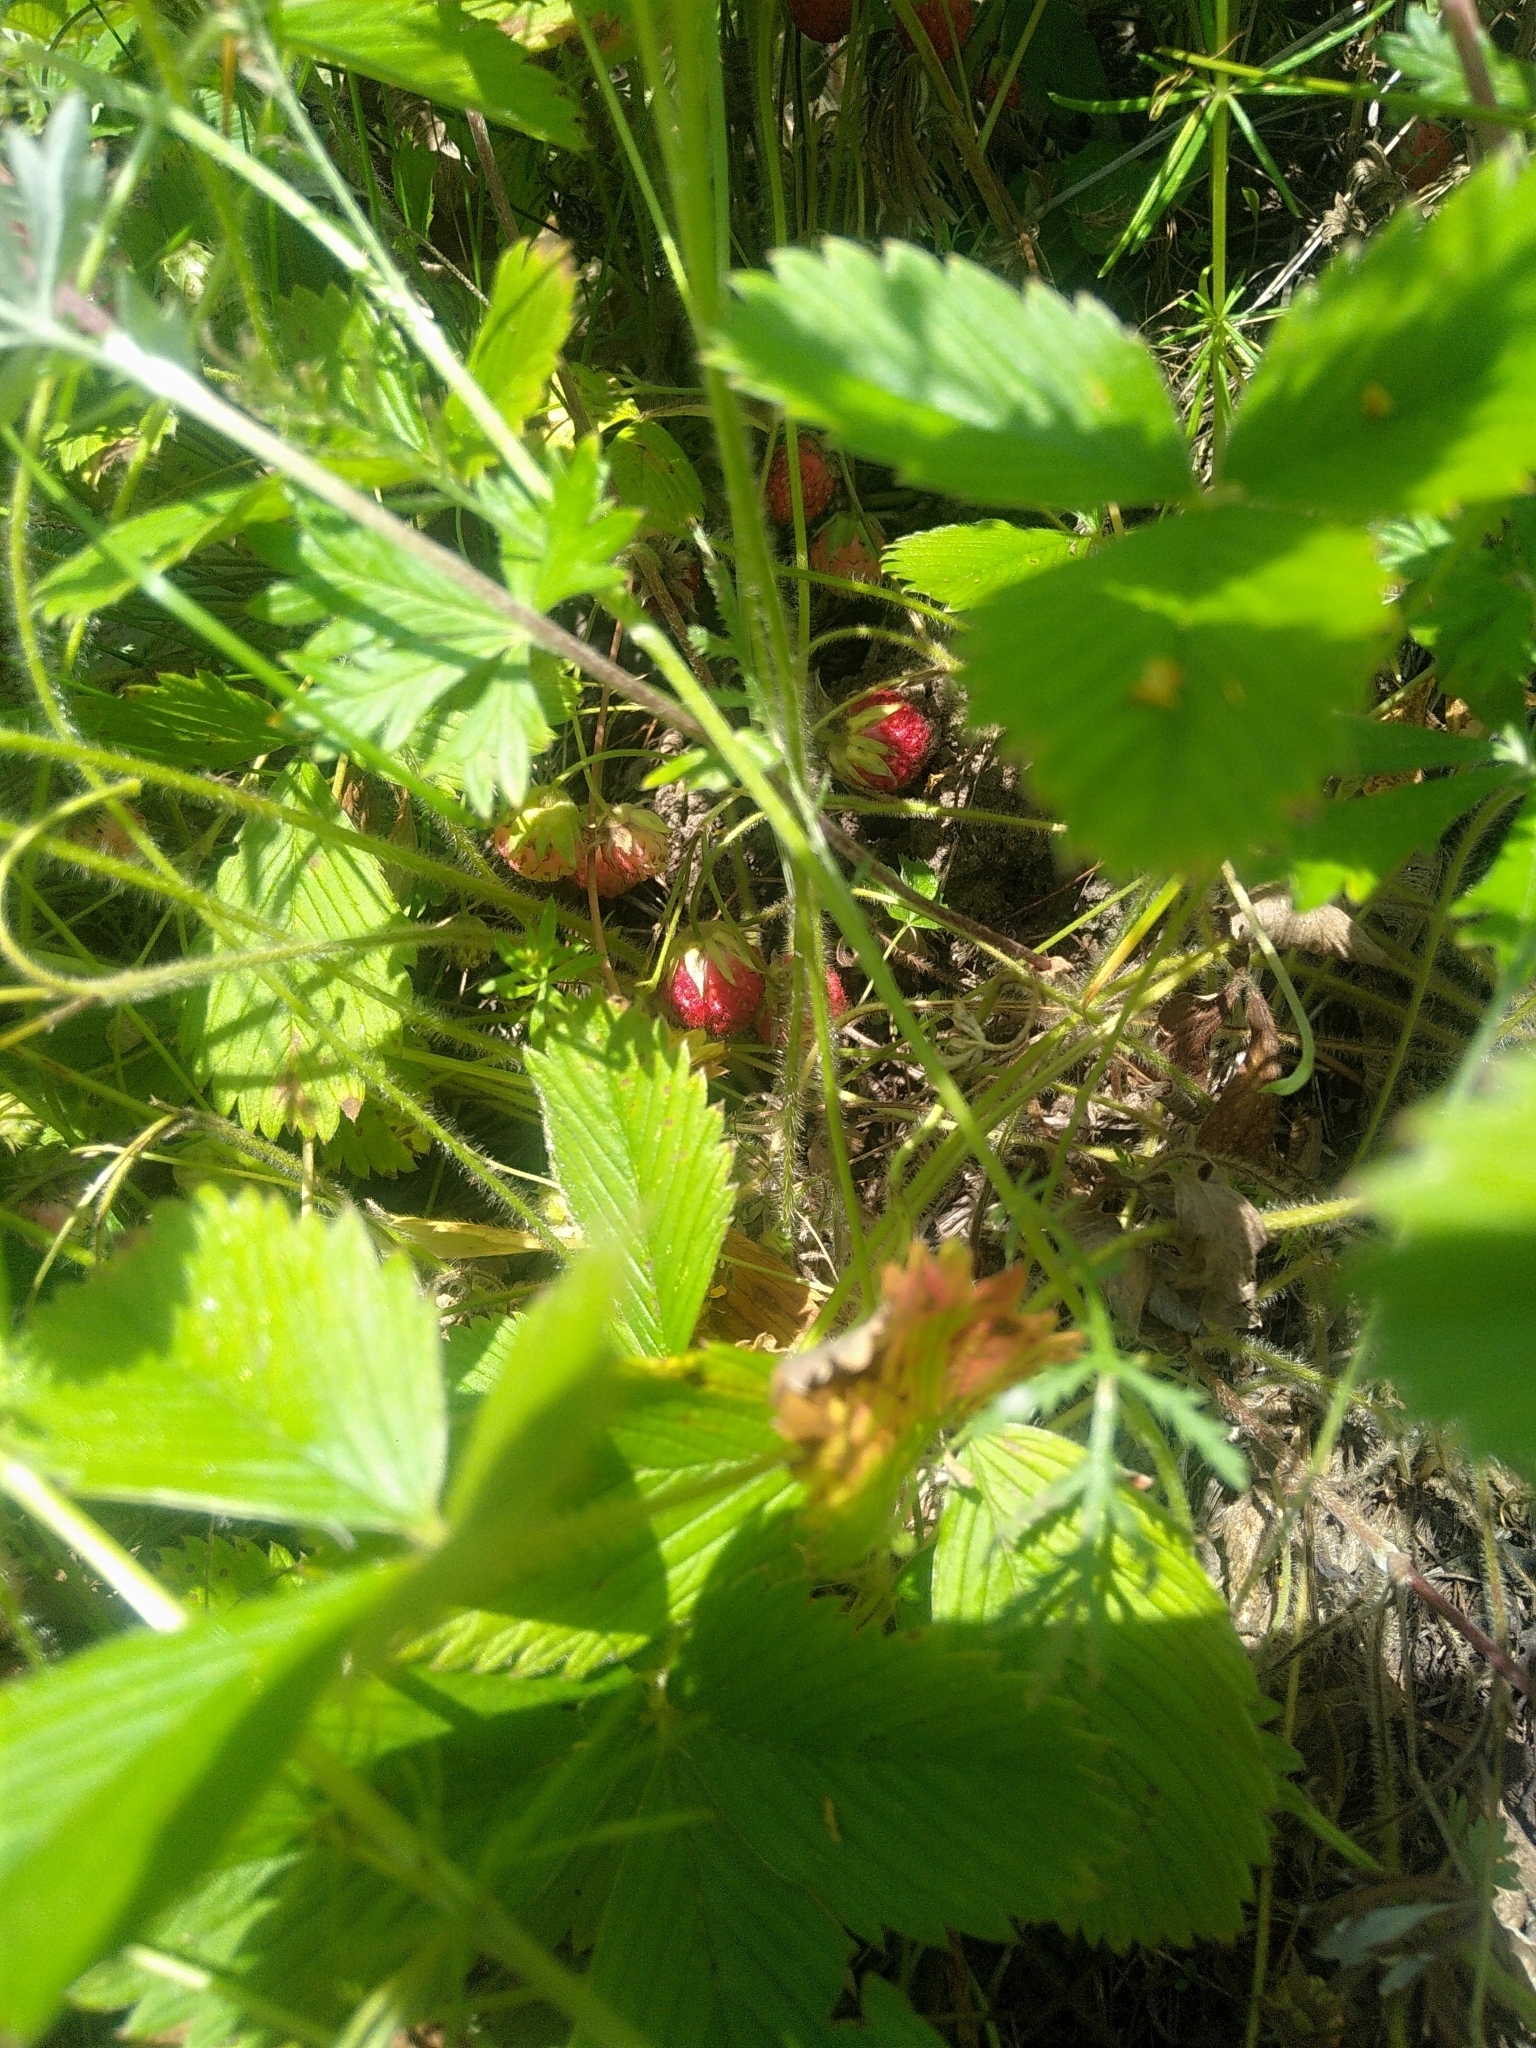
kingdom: Plantae
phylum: Tracheophyta
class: Magnoliopsida
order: Rosales
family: Rosaceae
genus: Fragaria
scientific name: Fragaria viridis
